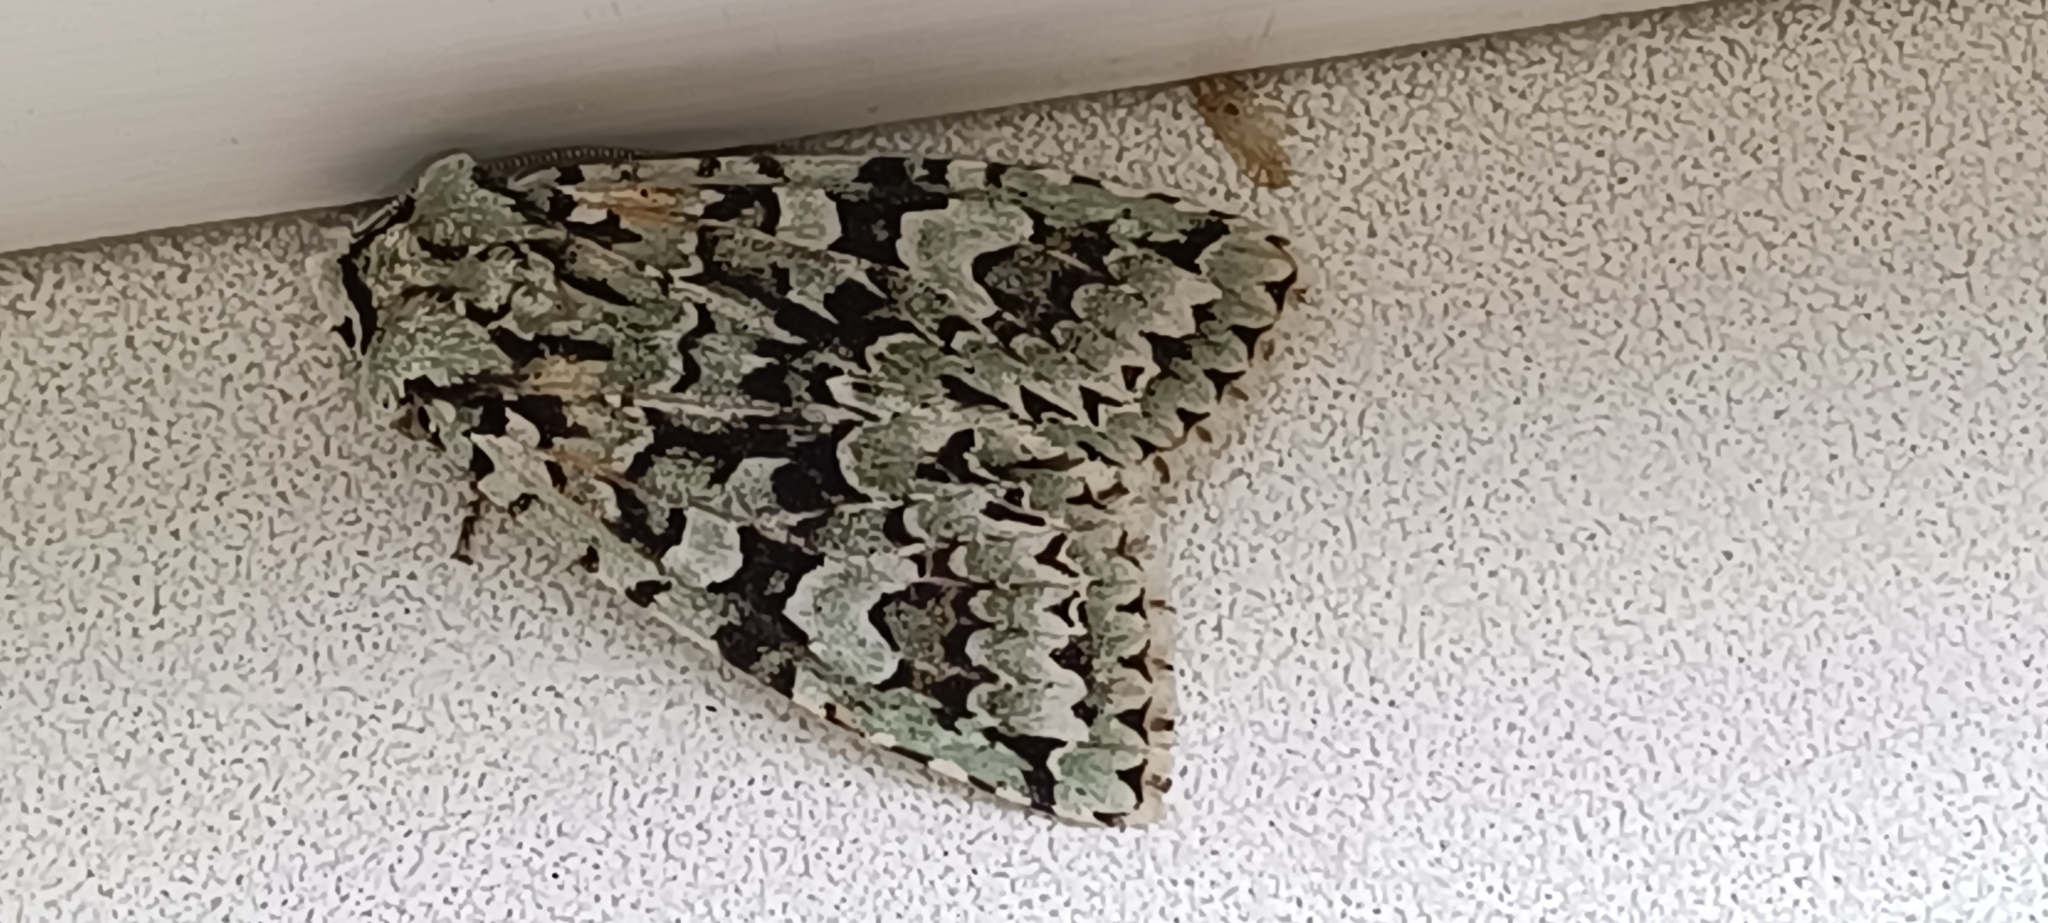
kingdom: Animalia
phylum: Arthropoda
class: Insecta
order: Lepidoptera
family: Noctuidae
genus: Griposia
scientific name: Griposia aprilina
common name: Merveille du jour
